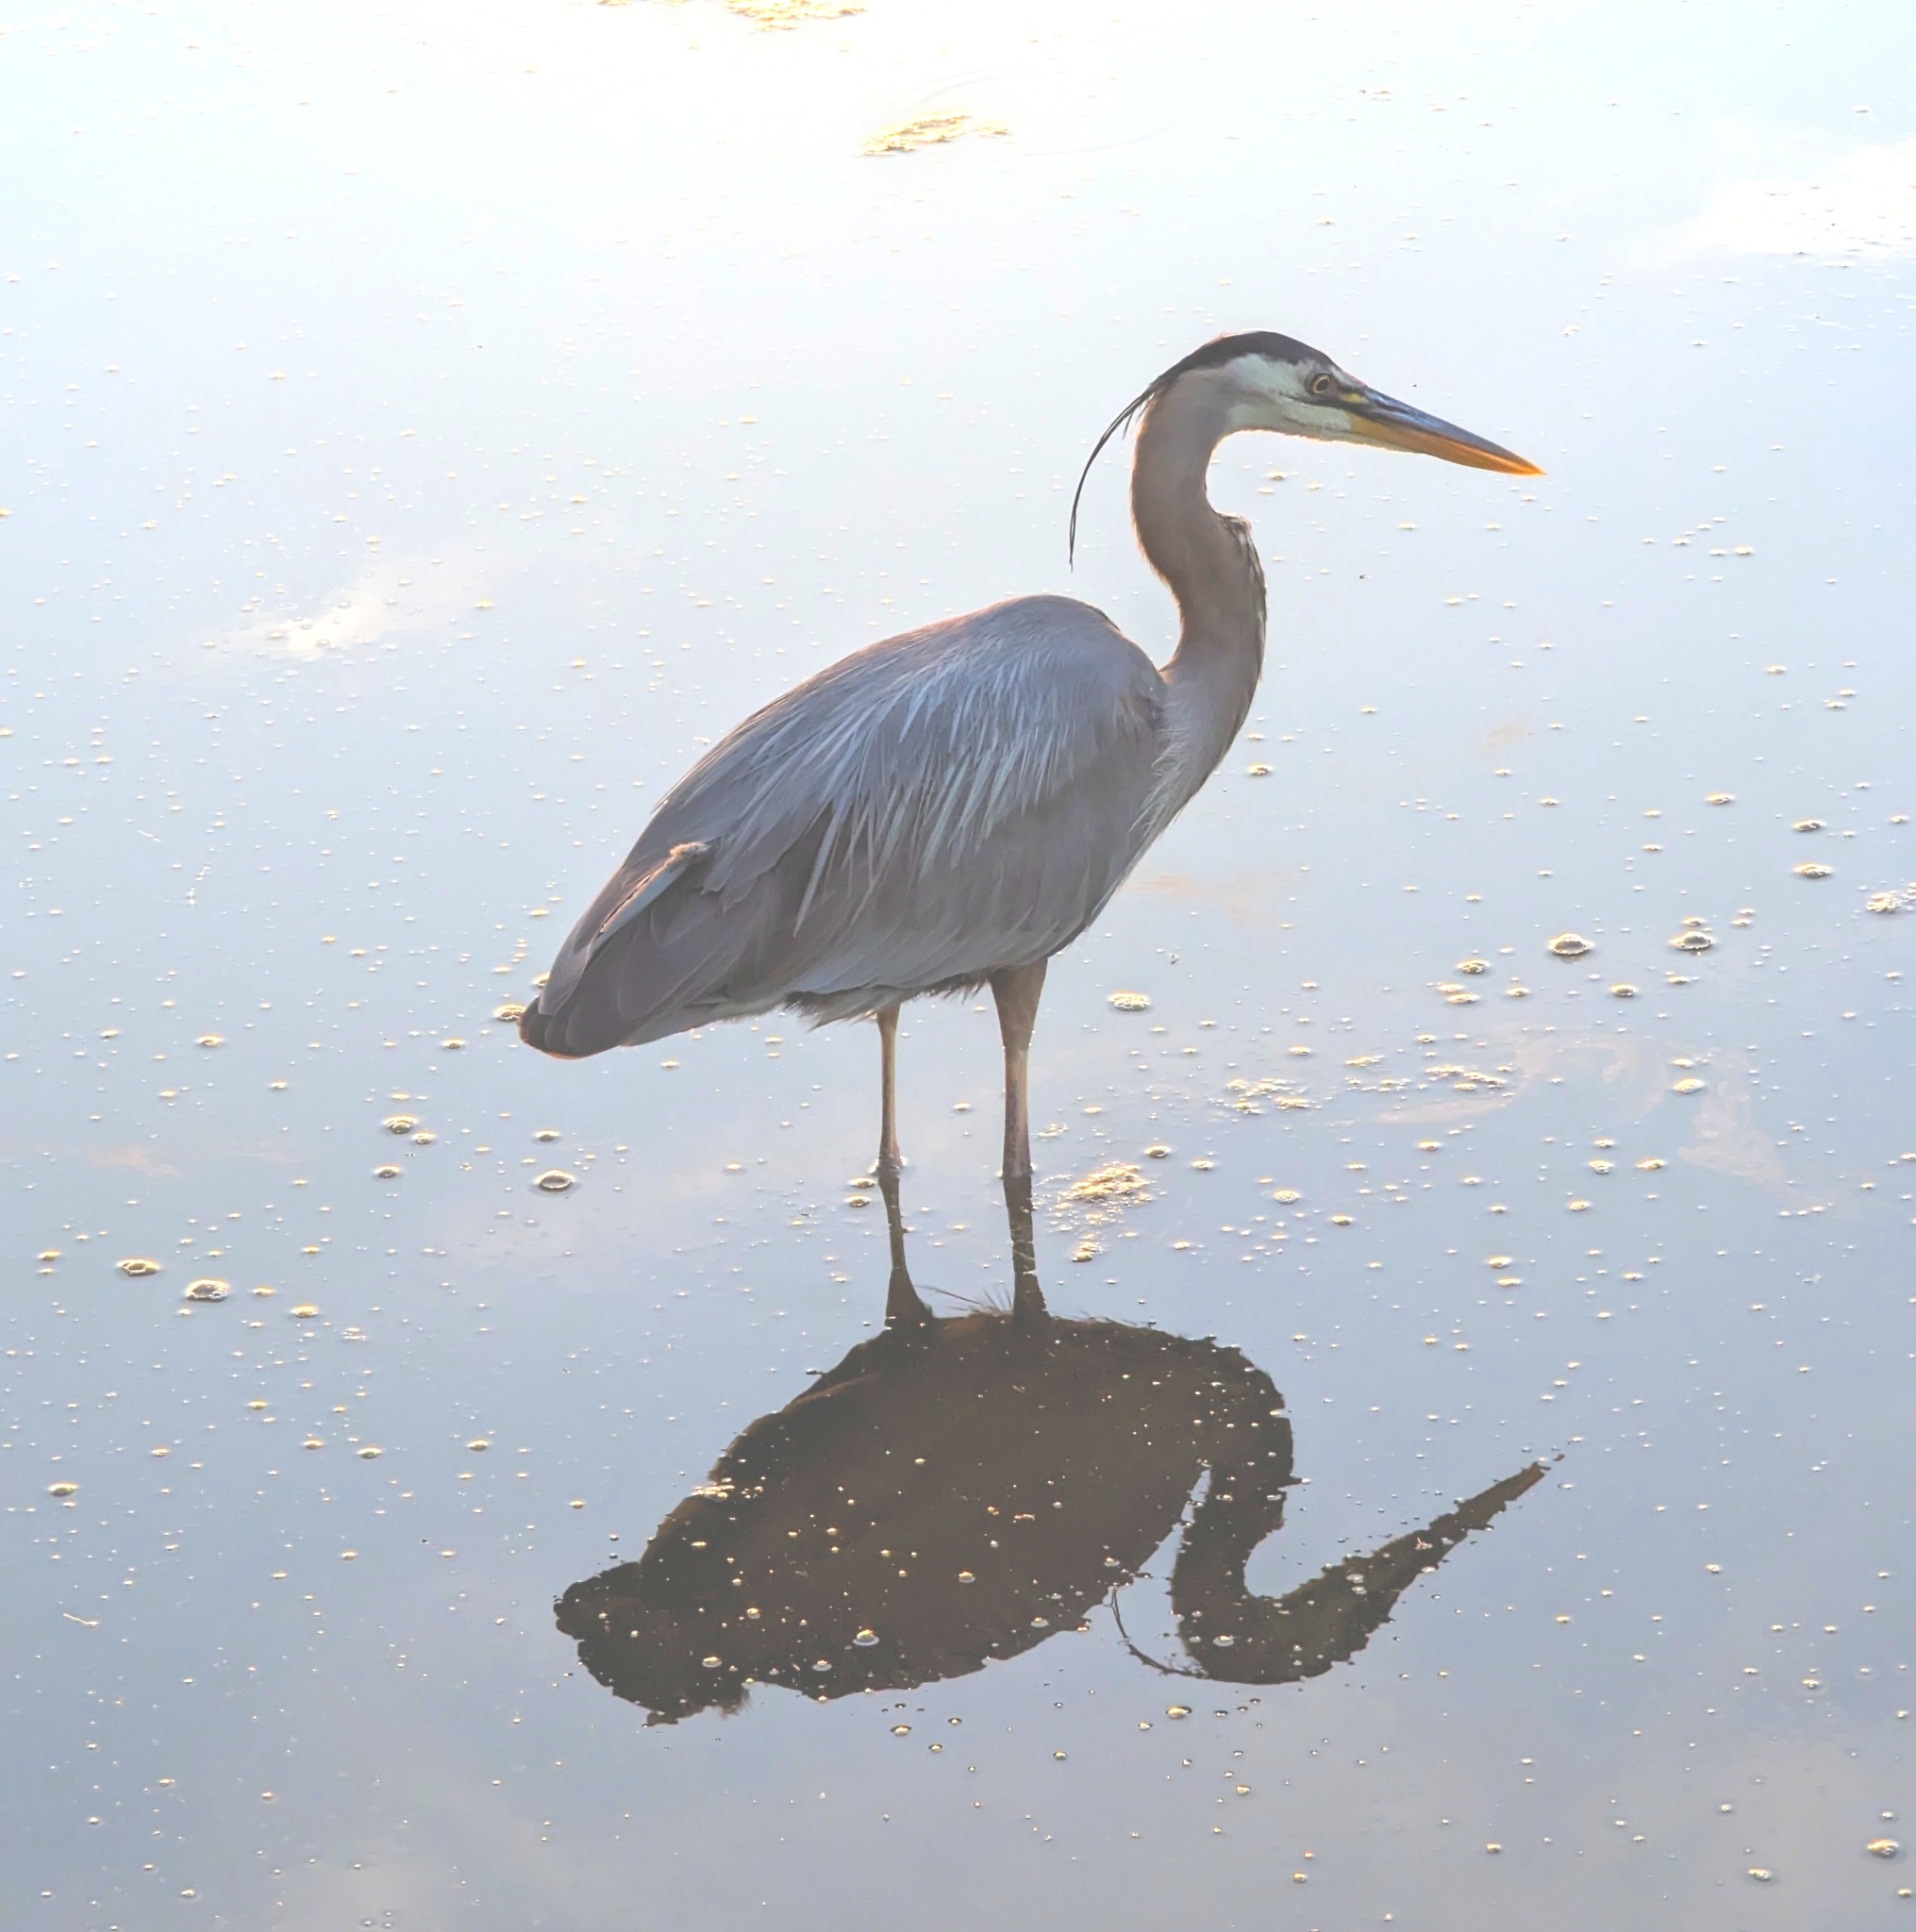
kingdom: Animalia
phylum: Chordata
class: Aves
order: Pelecaniformes
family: Ardeidae
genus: Ardea
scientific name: Ardea herodias
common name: Great blue heron
